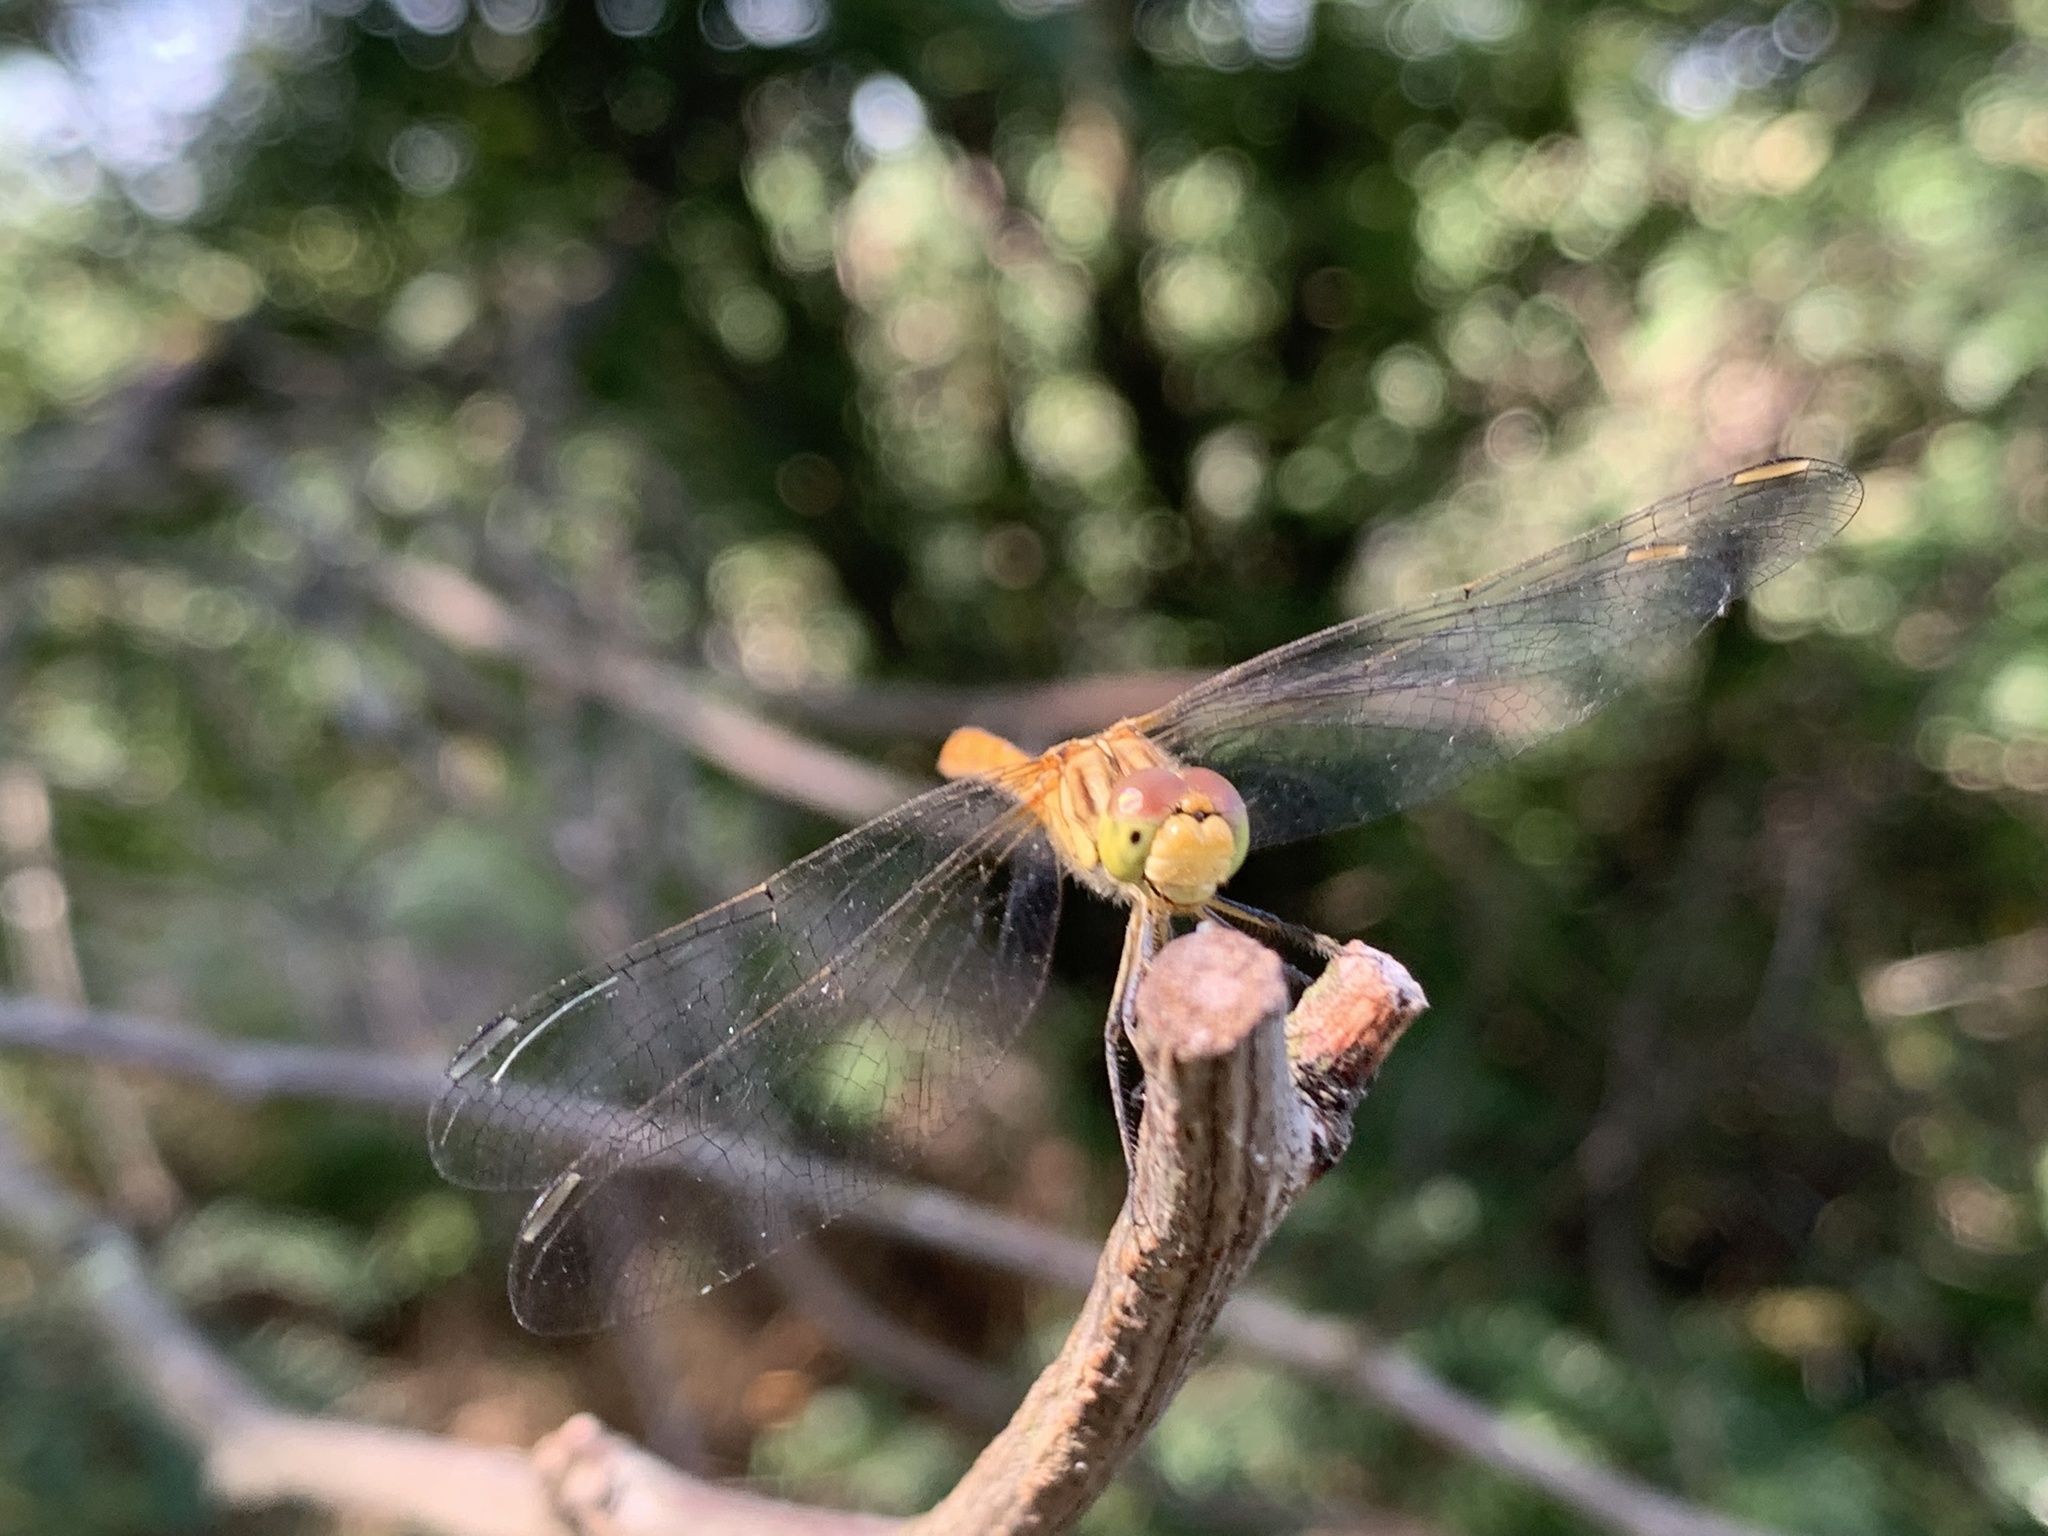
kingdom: Animalia
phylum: Arthropoda
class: Insecta
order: Odonata
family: Libellulidae
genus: Sympetrum
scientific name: Sympetrum meridionale
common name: Southern darter
